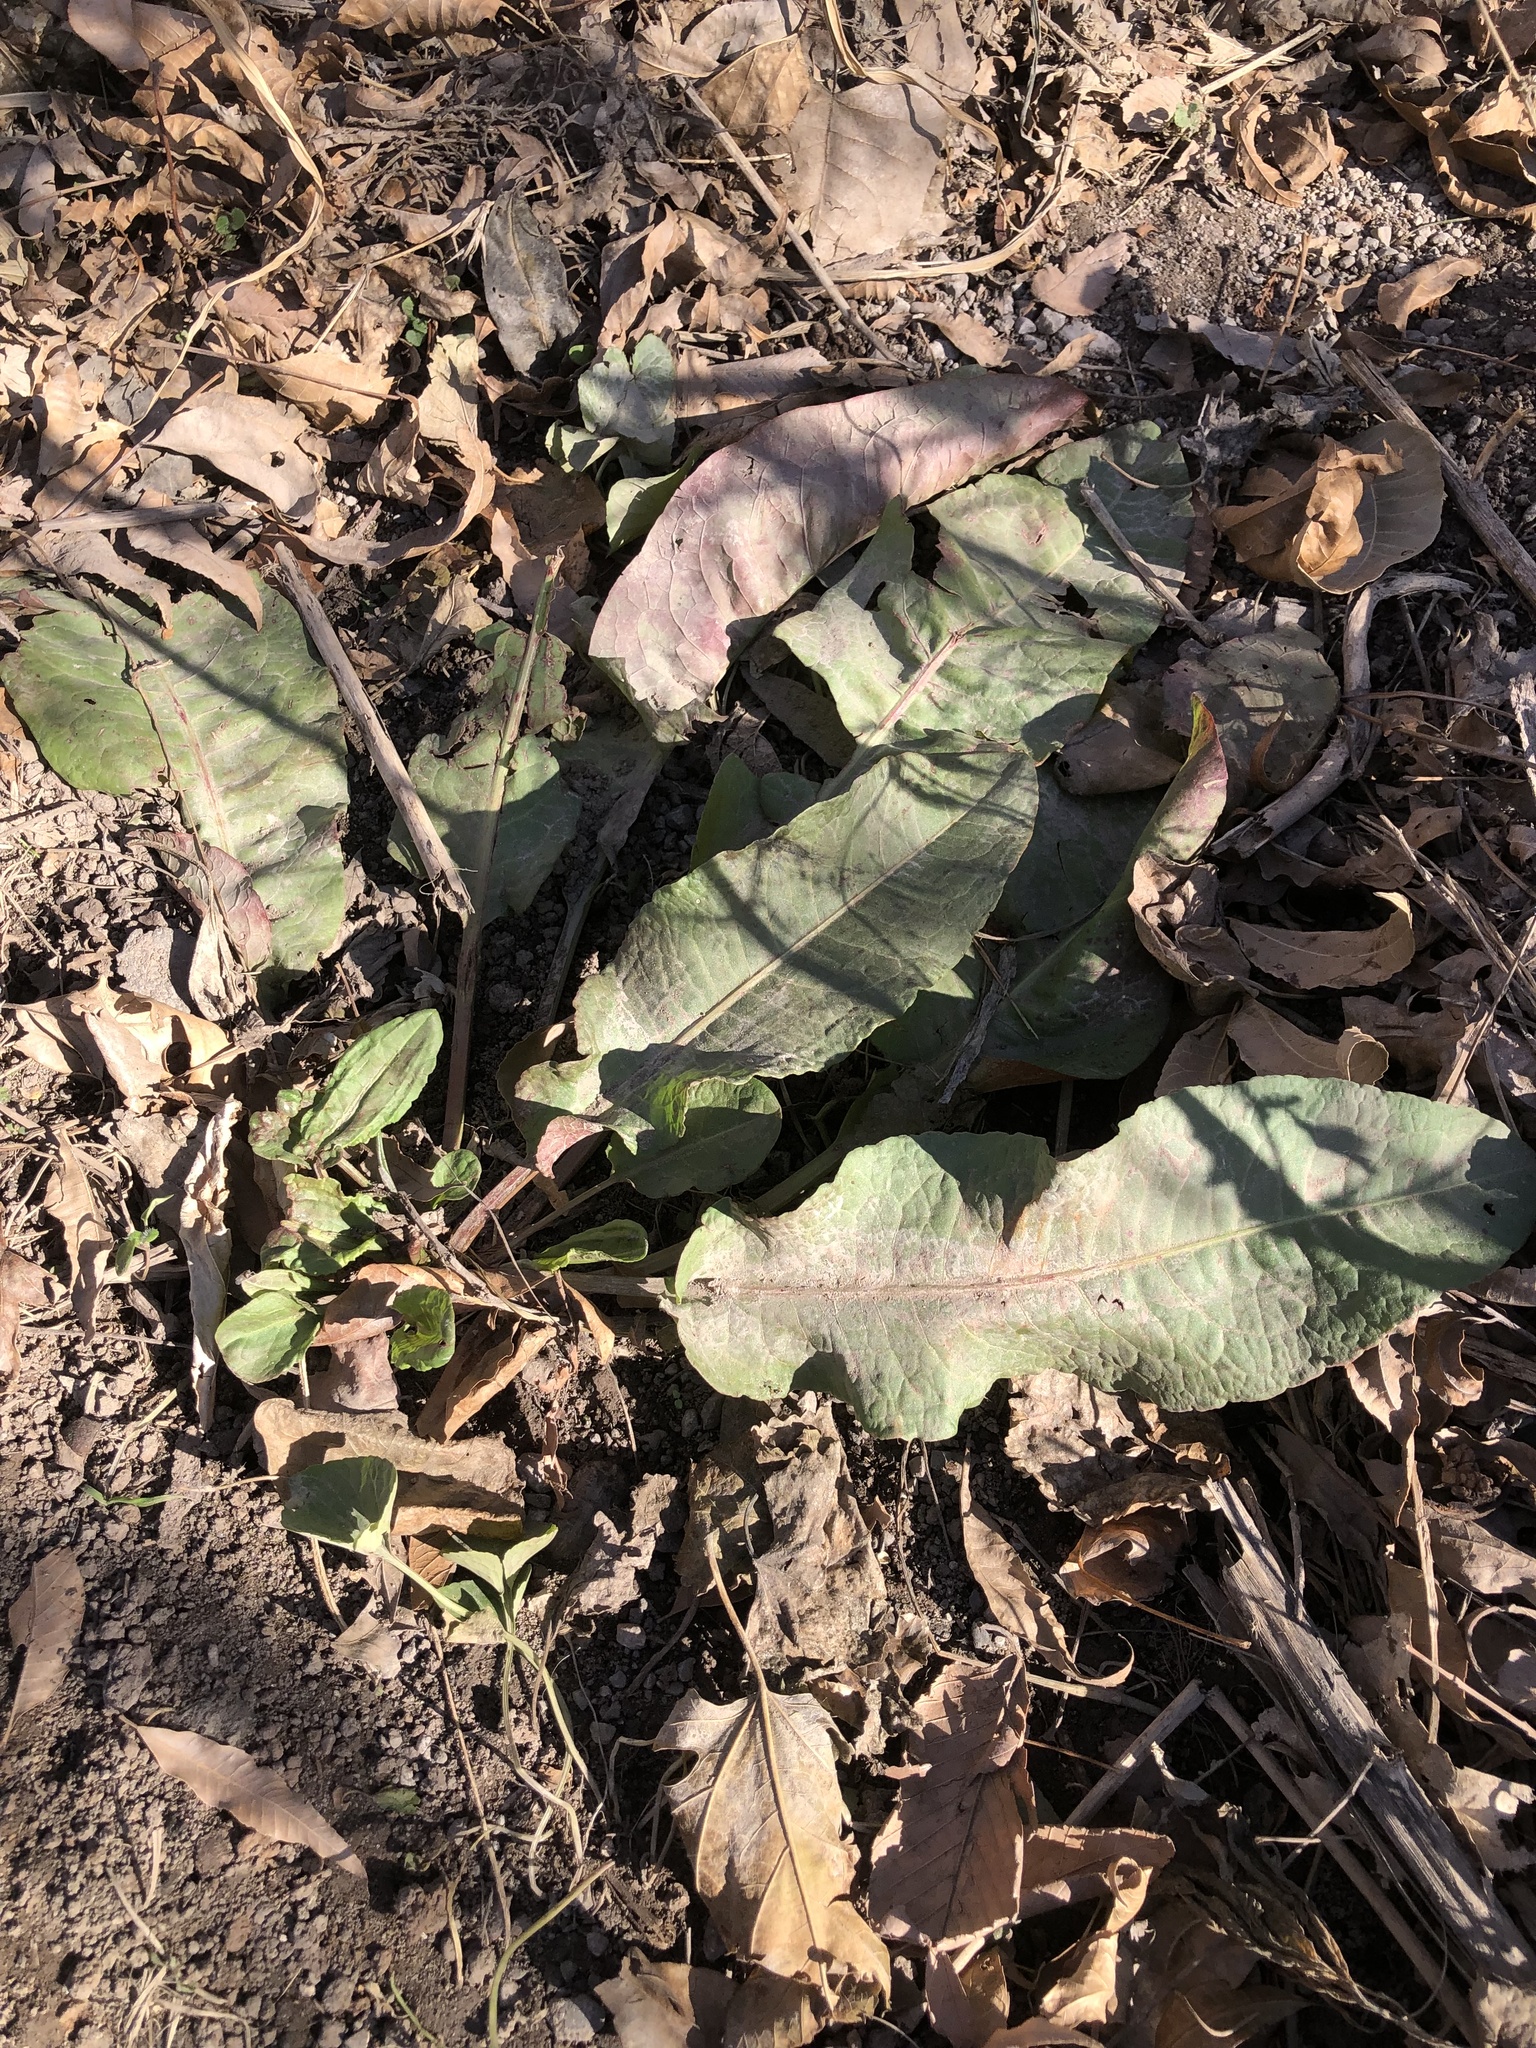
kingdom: Plantae
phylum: Tracheophyta
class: Magnoliopsida
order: Caryophyllales
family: Polygonaceae
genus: Rumex
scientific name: Rumex crispus
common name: Curled dock
